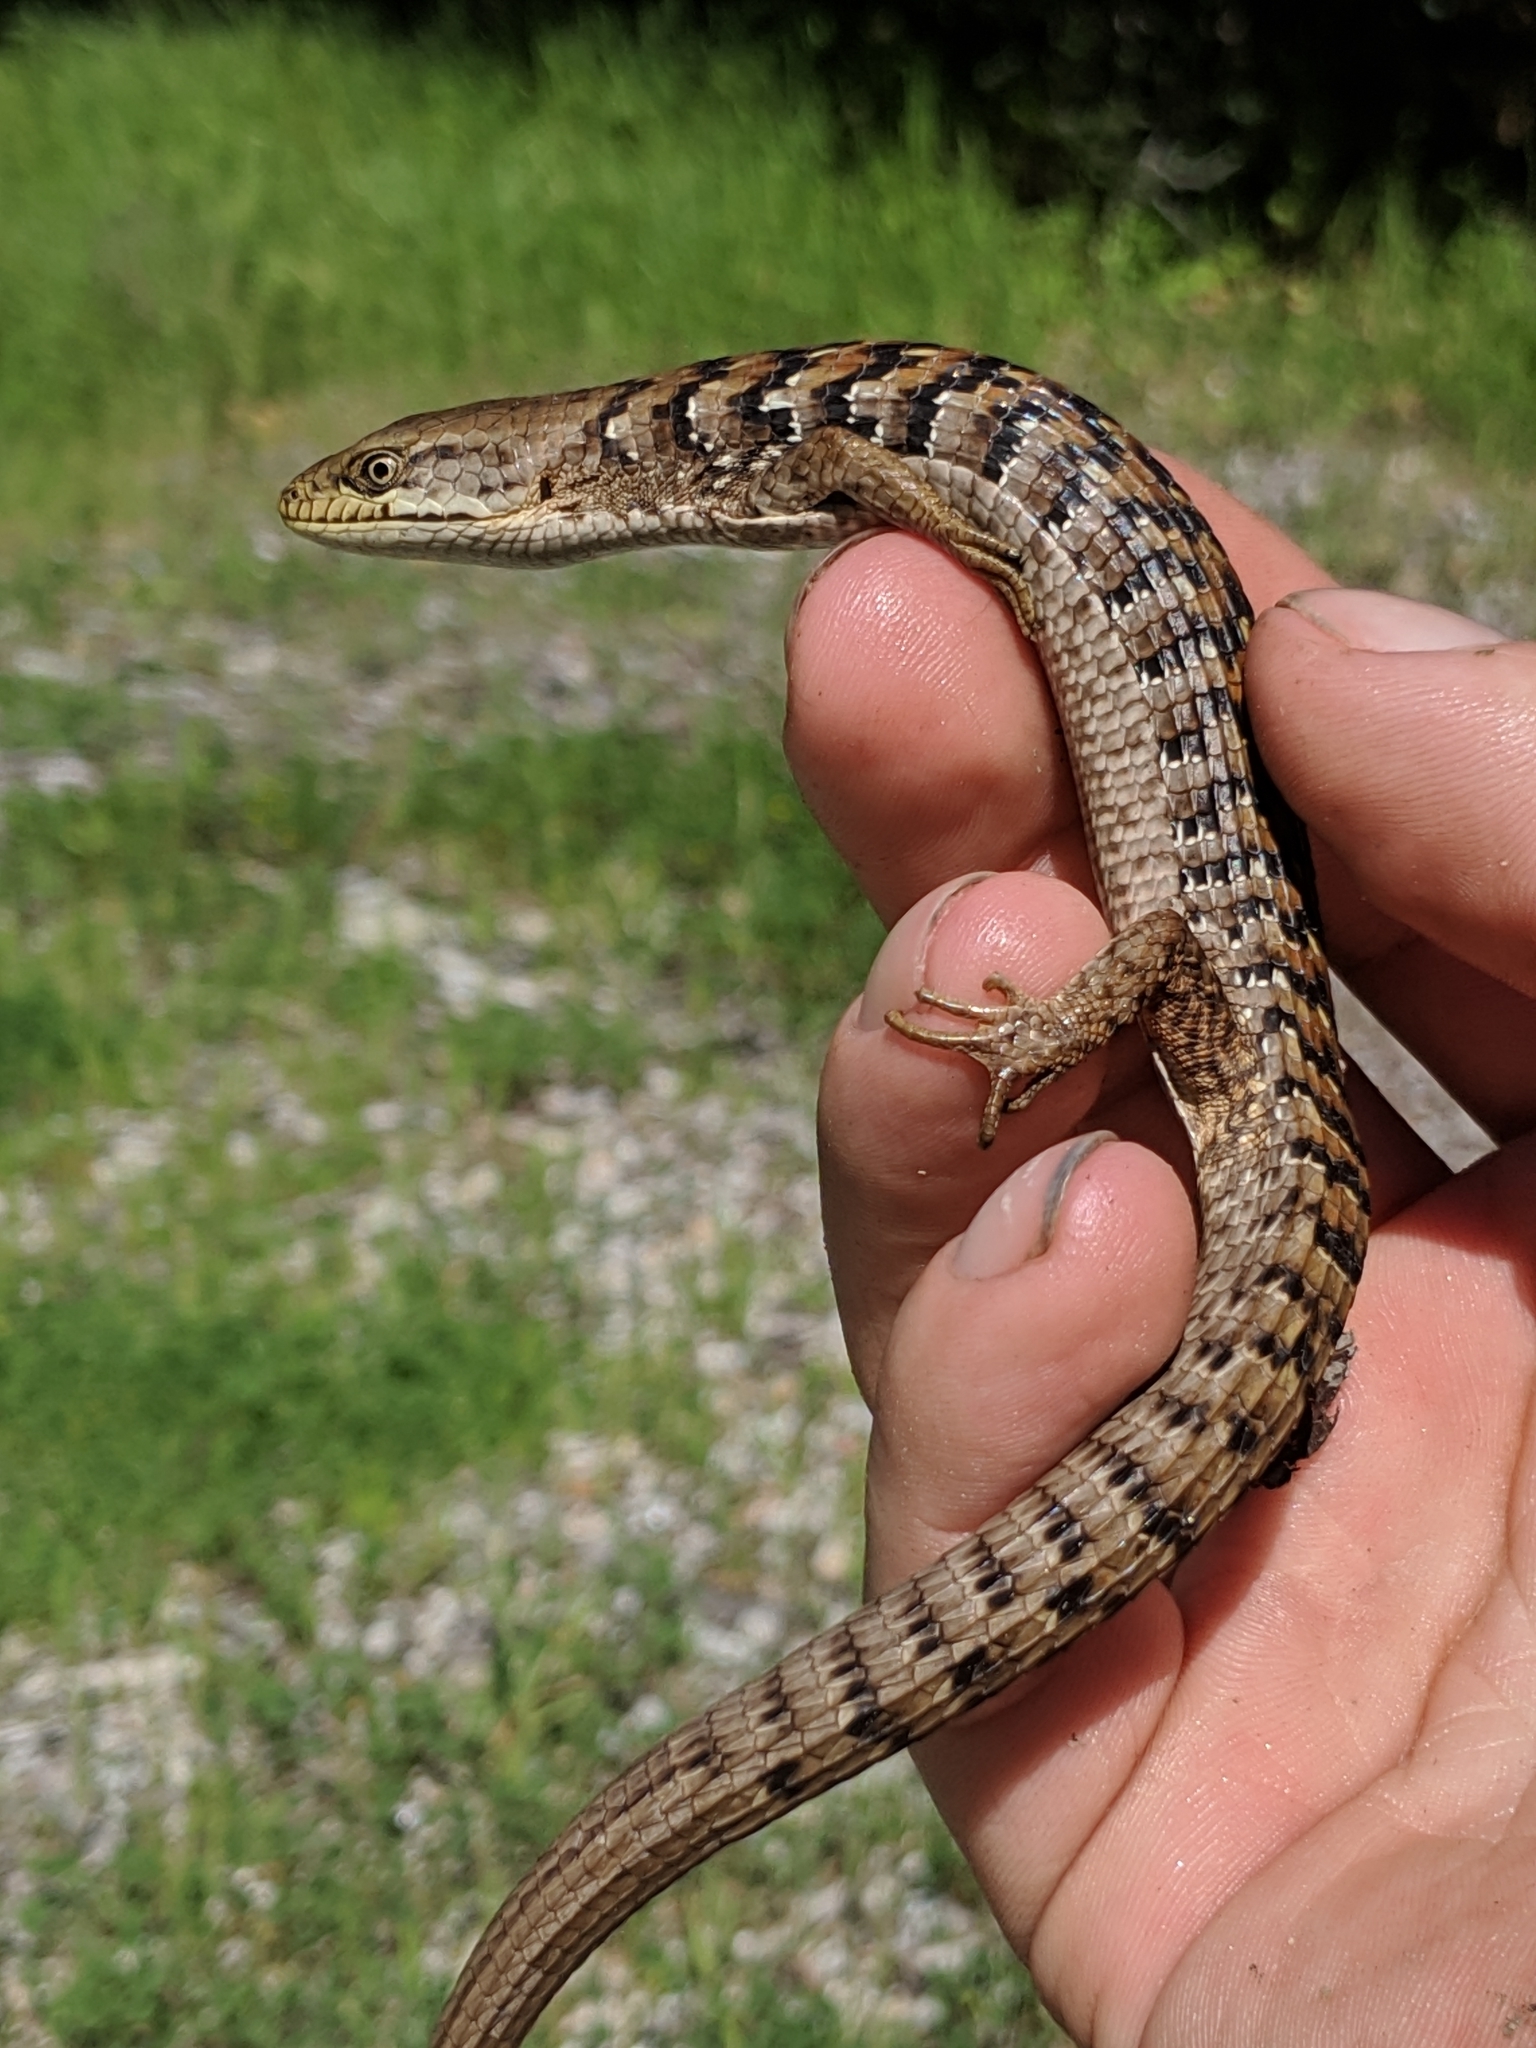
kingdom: Animalia
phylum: Chordata
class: Squamata
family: Anguidae
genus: Elgaria
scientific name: Elgaria multicarinata
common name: Southern alligator lizard
